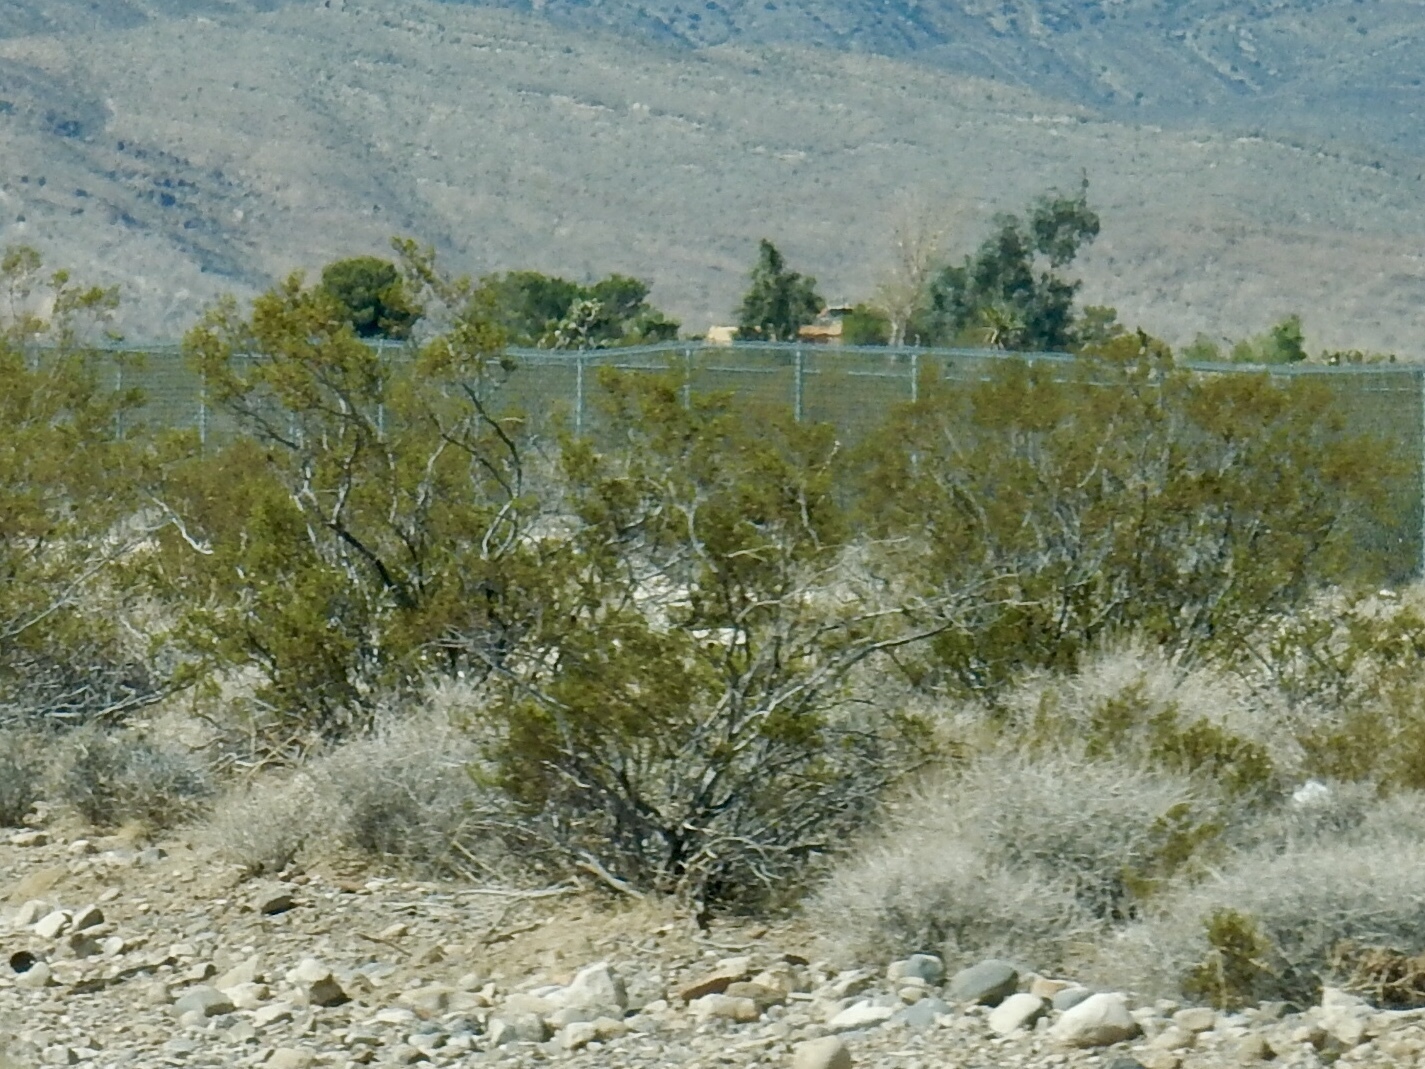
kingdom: Plantae
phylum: Tracheophyta
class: Magnoliopsida
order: Zygophyllales
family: Zygophyllaceae
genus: Larrea
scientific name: Larrea tridentata
